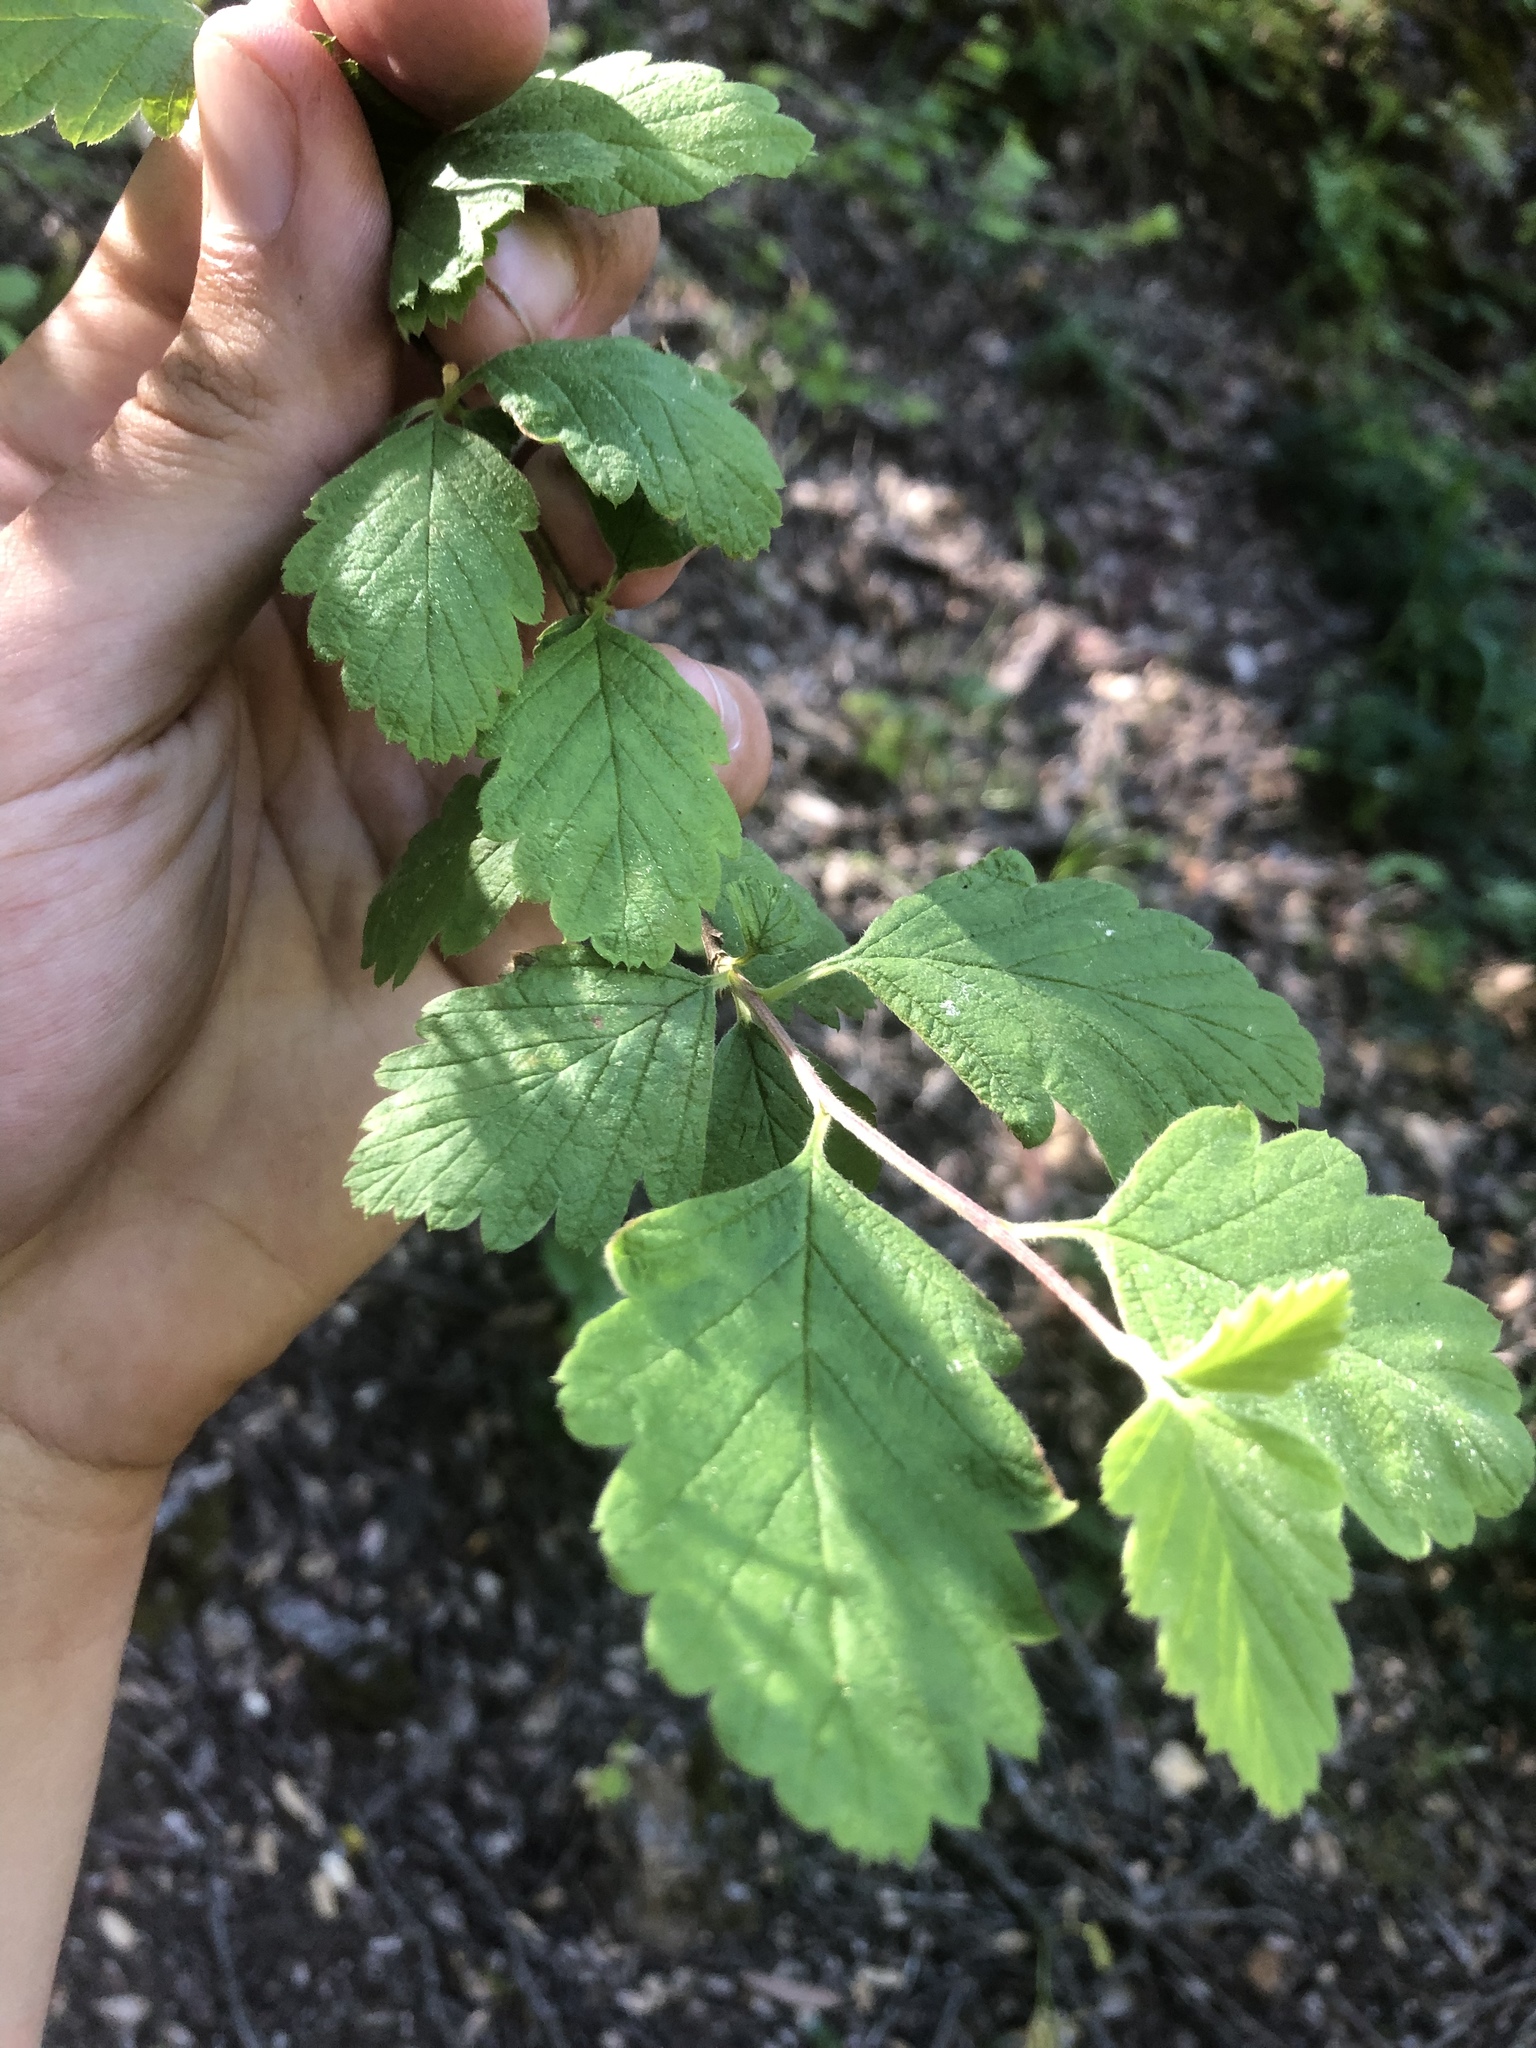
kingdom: Plantae
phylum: Tracheophyta
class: Magnoliopsida
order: Rosales
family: Rosaceae
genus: Holodiscus
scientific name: Holodiscus discolor
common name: Oceanspray
